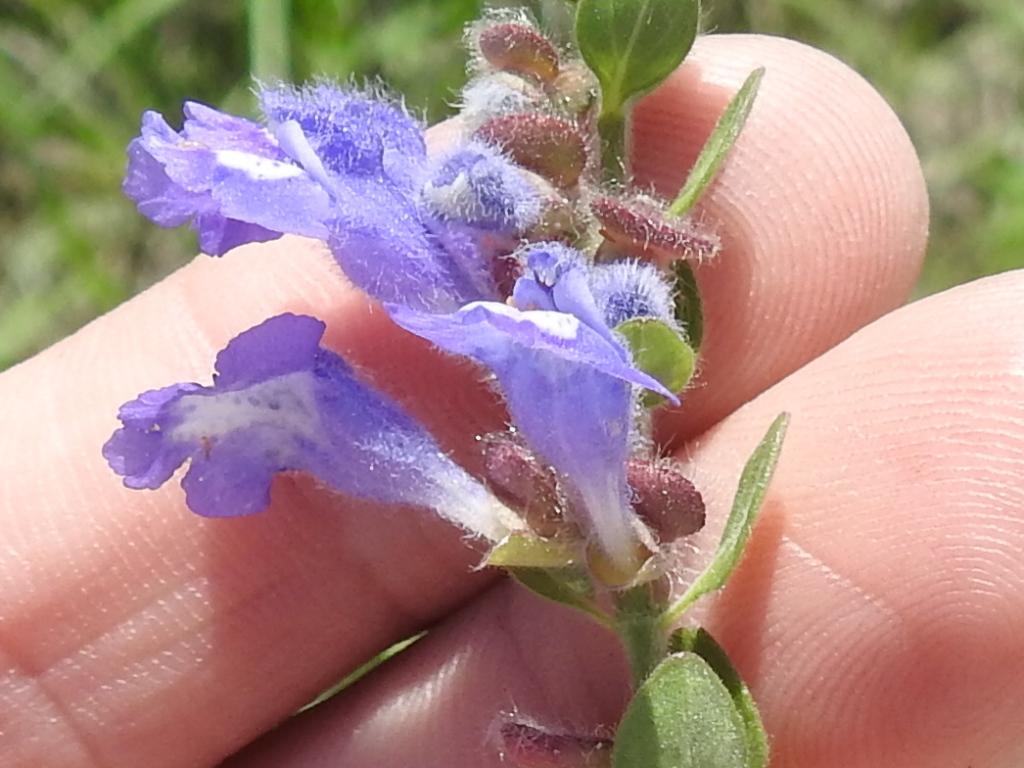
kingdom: Plantae
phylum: Tracheophyta
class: Magnoliopsida
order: Lamiales
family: Lamiaceae
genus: Scutellaria
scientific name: Scutellaria drummondii
